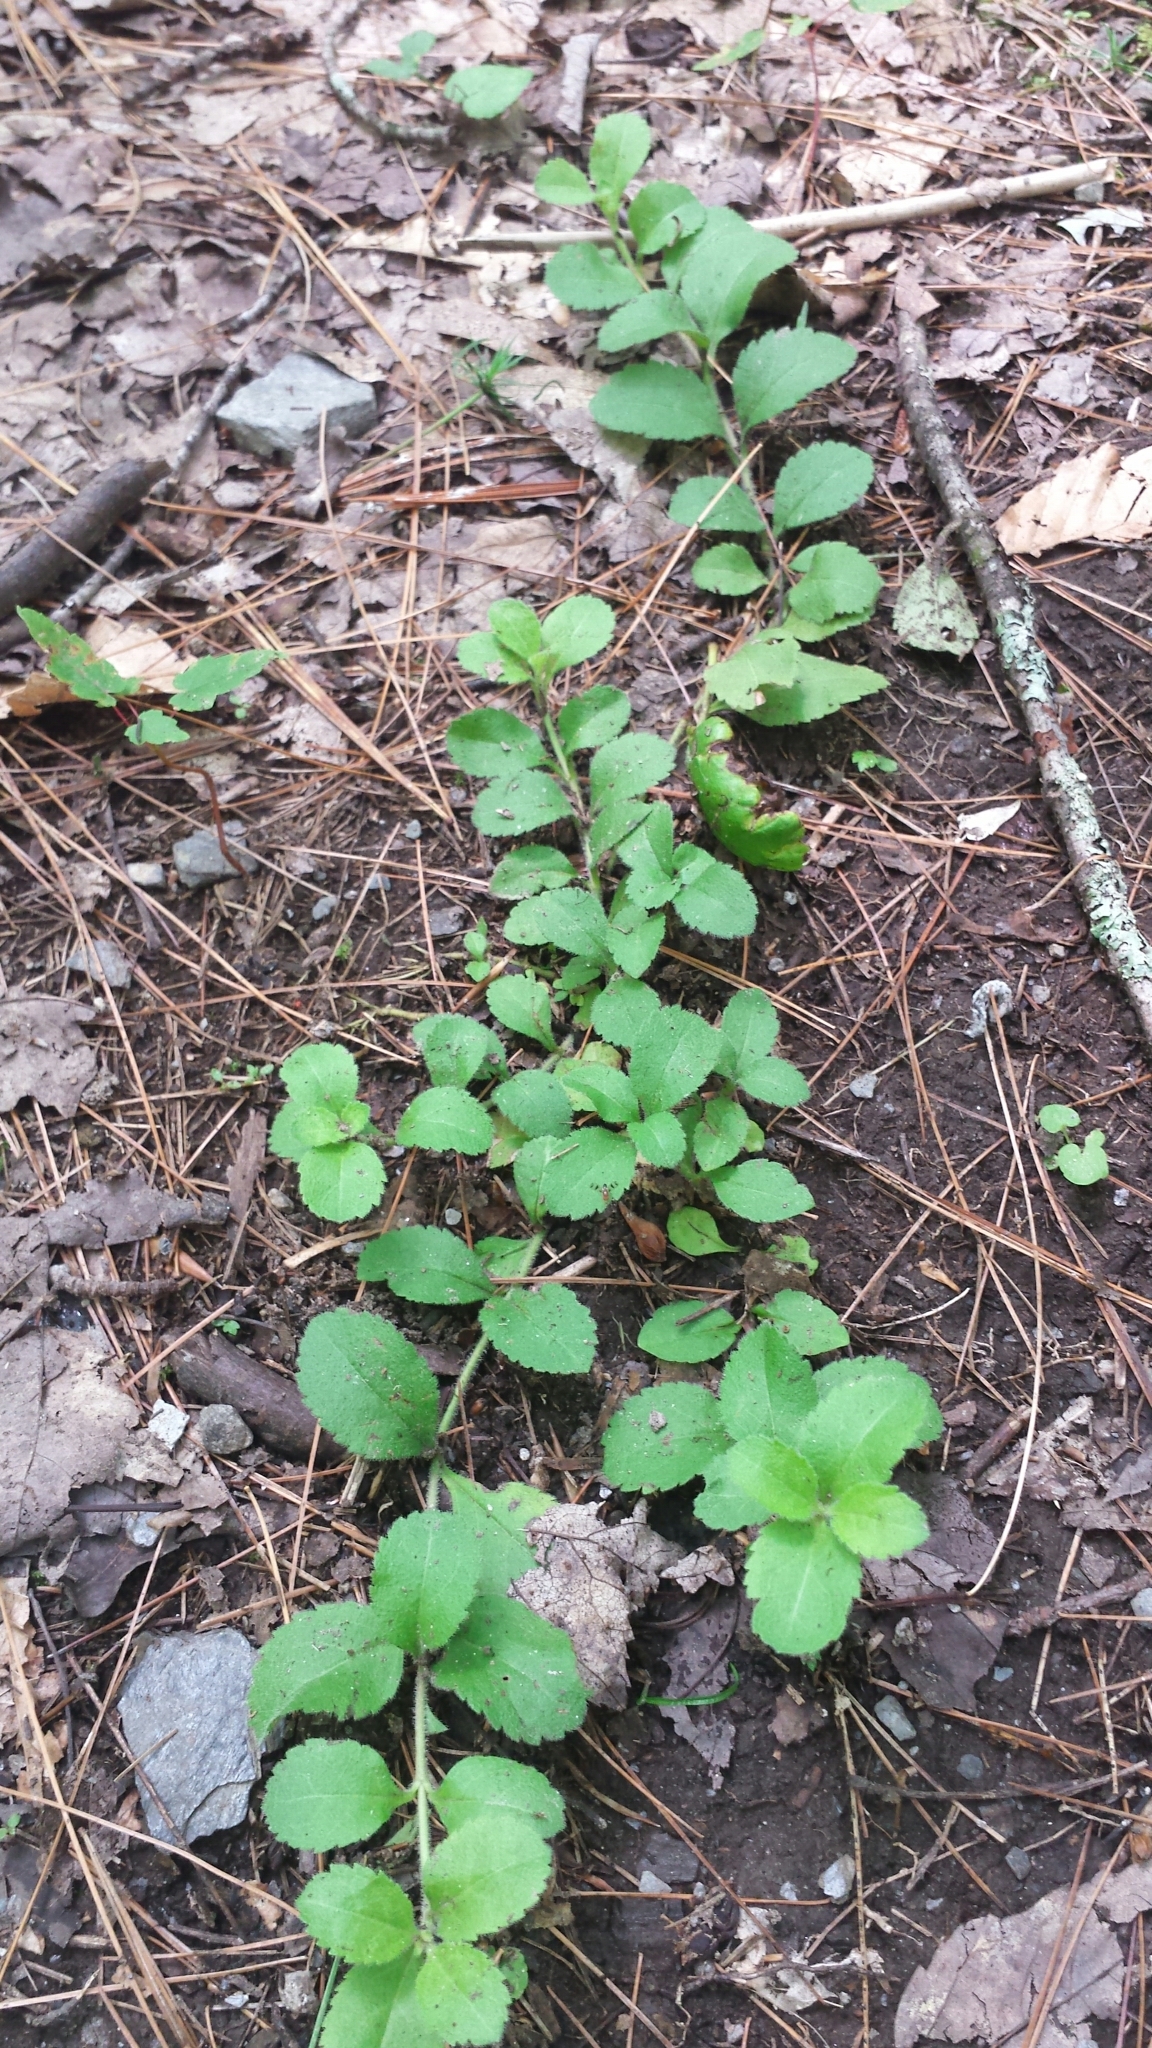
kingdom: Plantae
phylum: Tracheophyta
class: Magnoliopsida
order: Lamiales
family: Plantaginaceae
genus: Veronica
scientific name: Veronica officinalis
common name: Common speedwell
